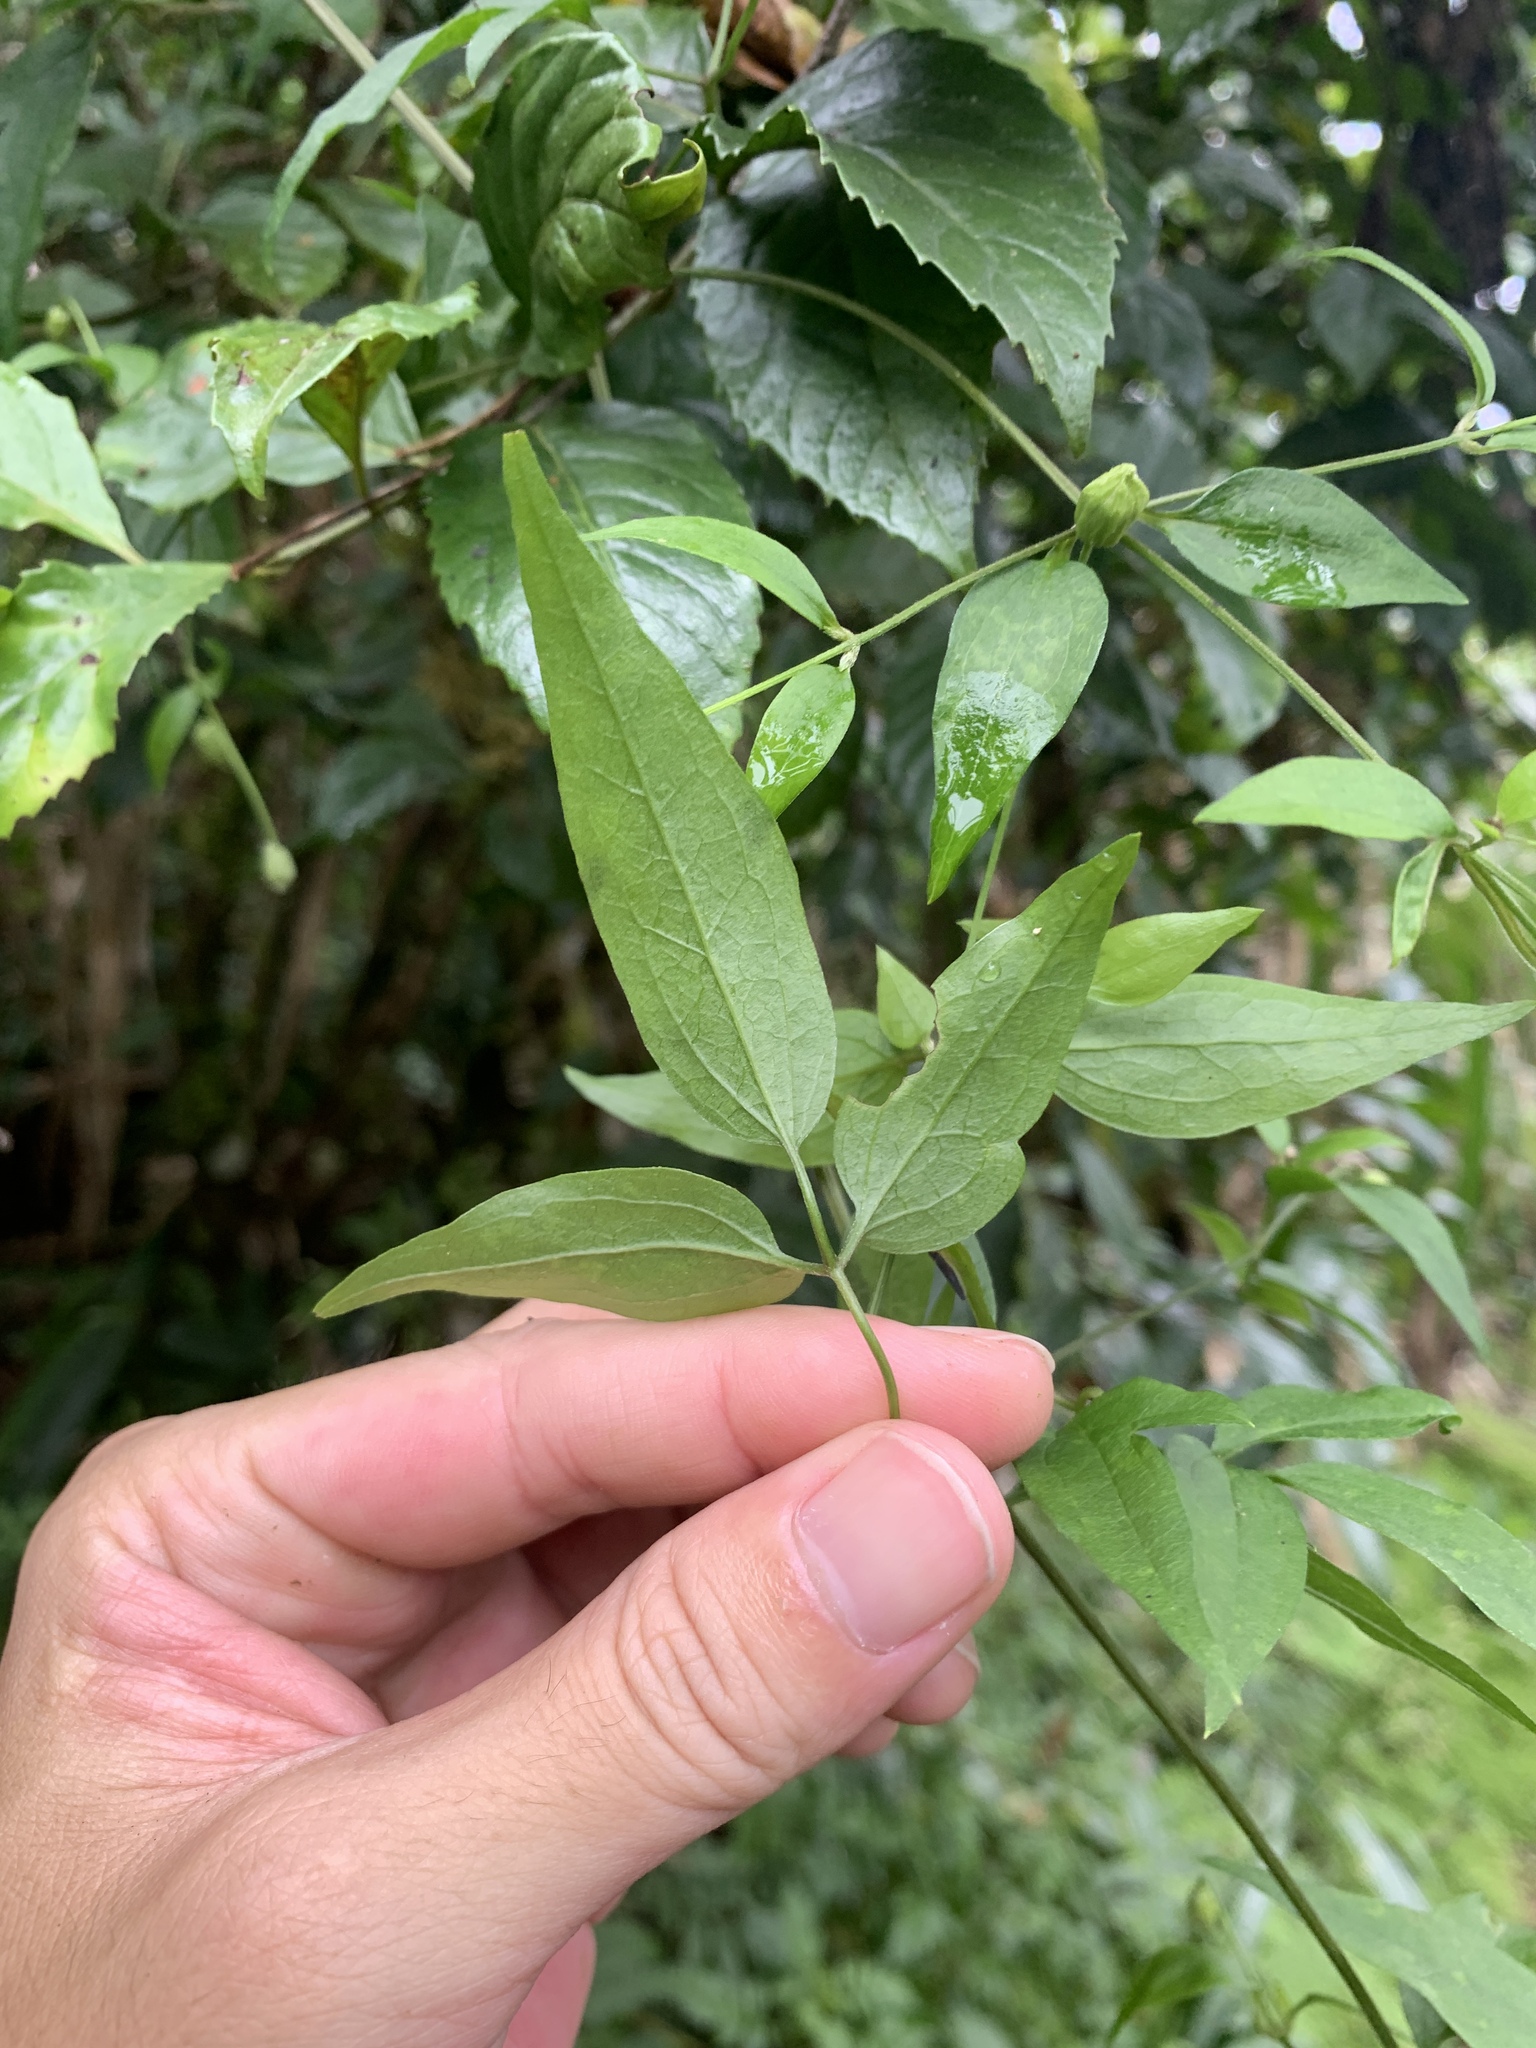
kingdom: Plantae
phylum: Tracheophyta
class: Magnoliopsida
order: Ranunculales
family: Ranunculaceae
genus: Clematis
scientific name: Clematis tamurae
